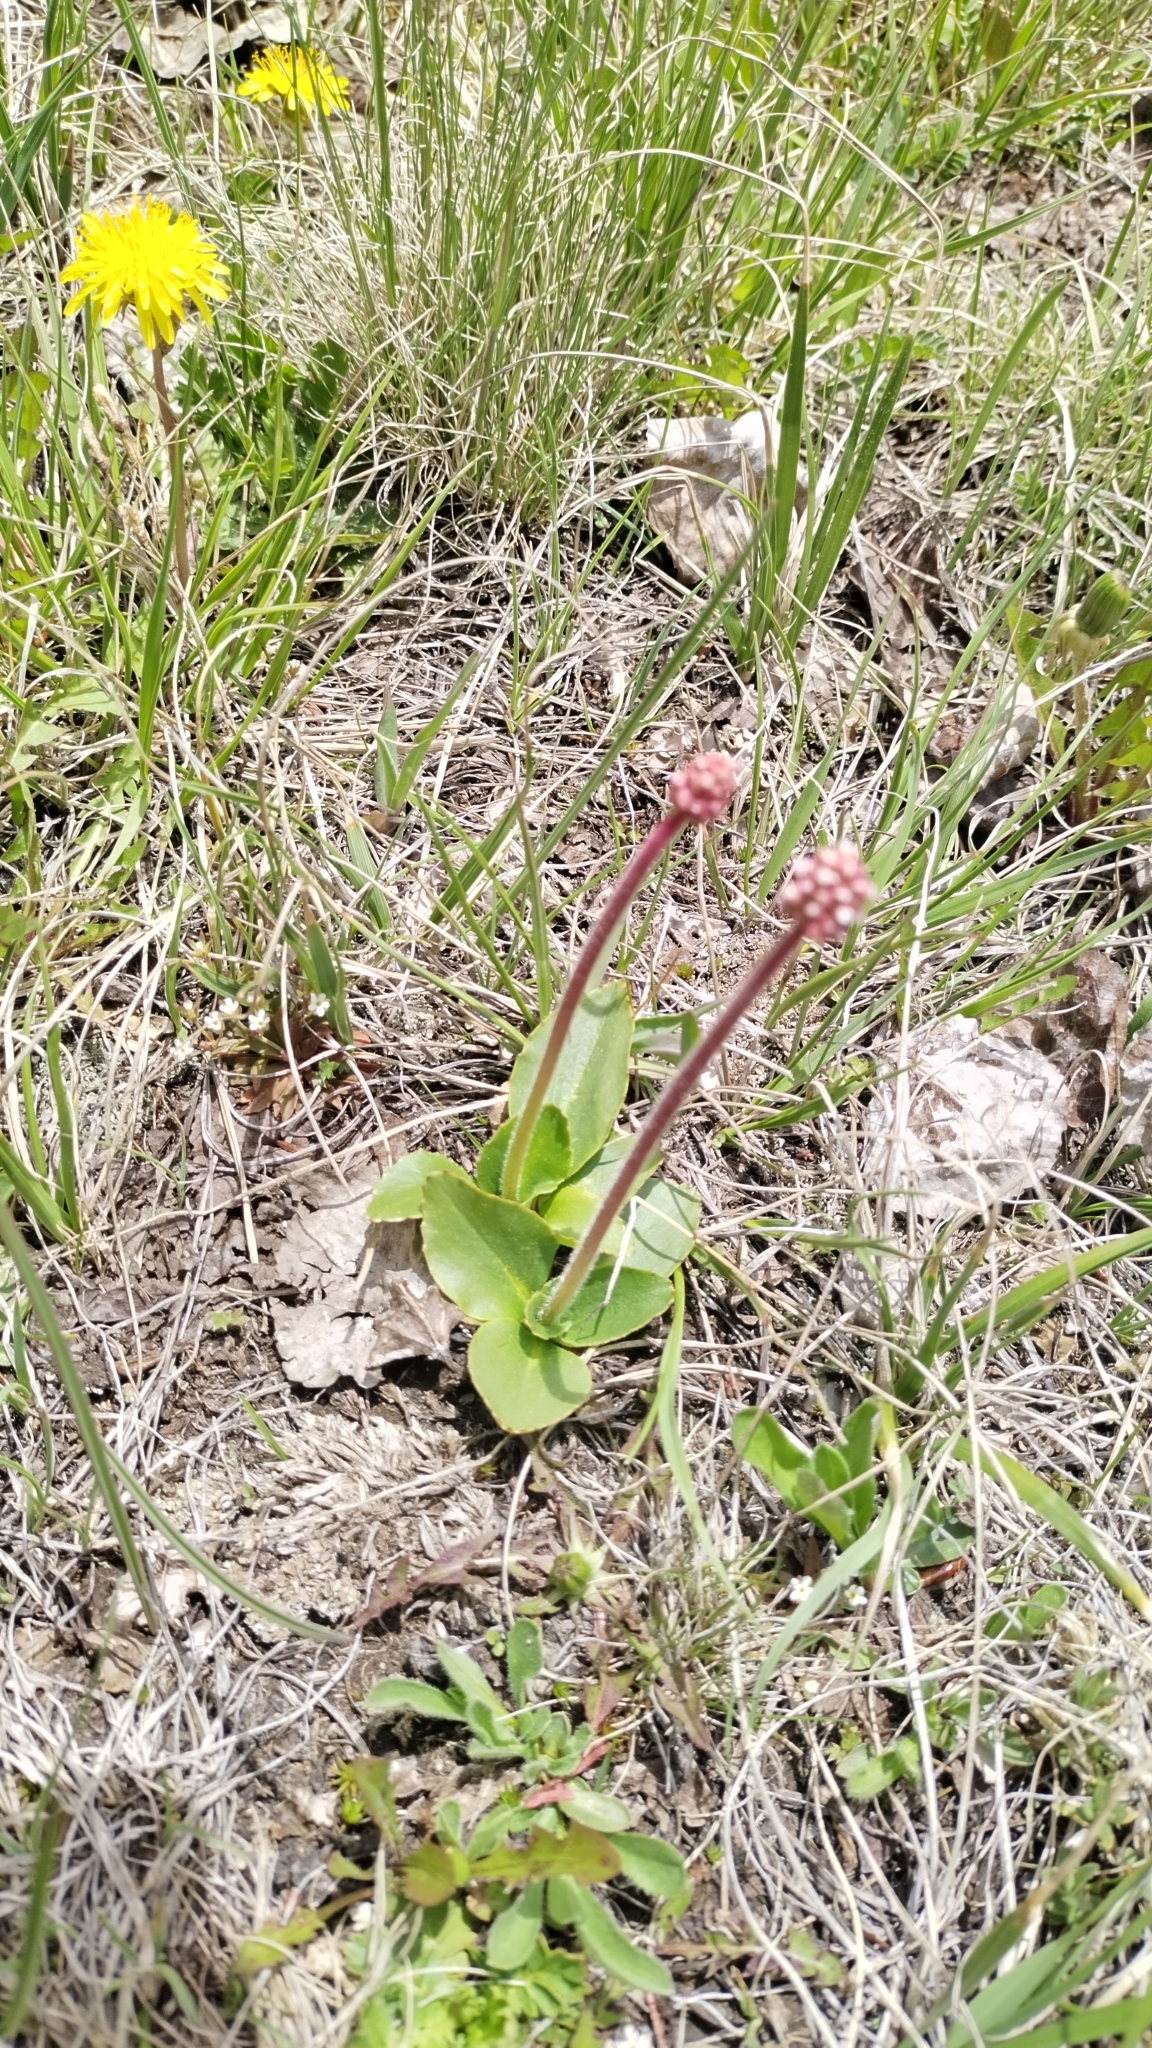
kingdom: Plantae
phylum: Tracheophyta
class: Magnoliopsida
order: Saxifragales
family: Saxifragaceae
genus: Micranthes
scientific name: Micranthes rhomboidea
